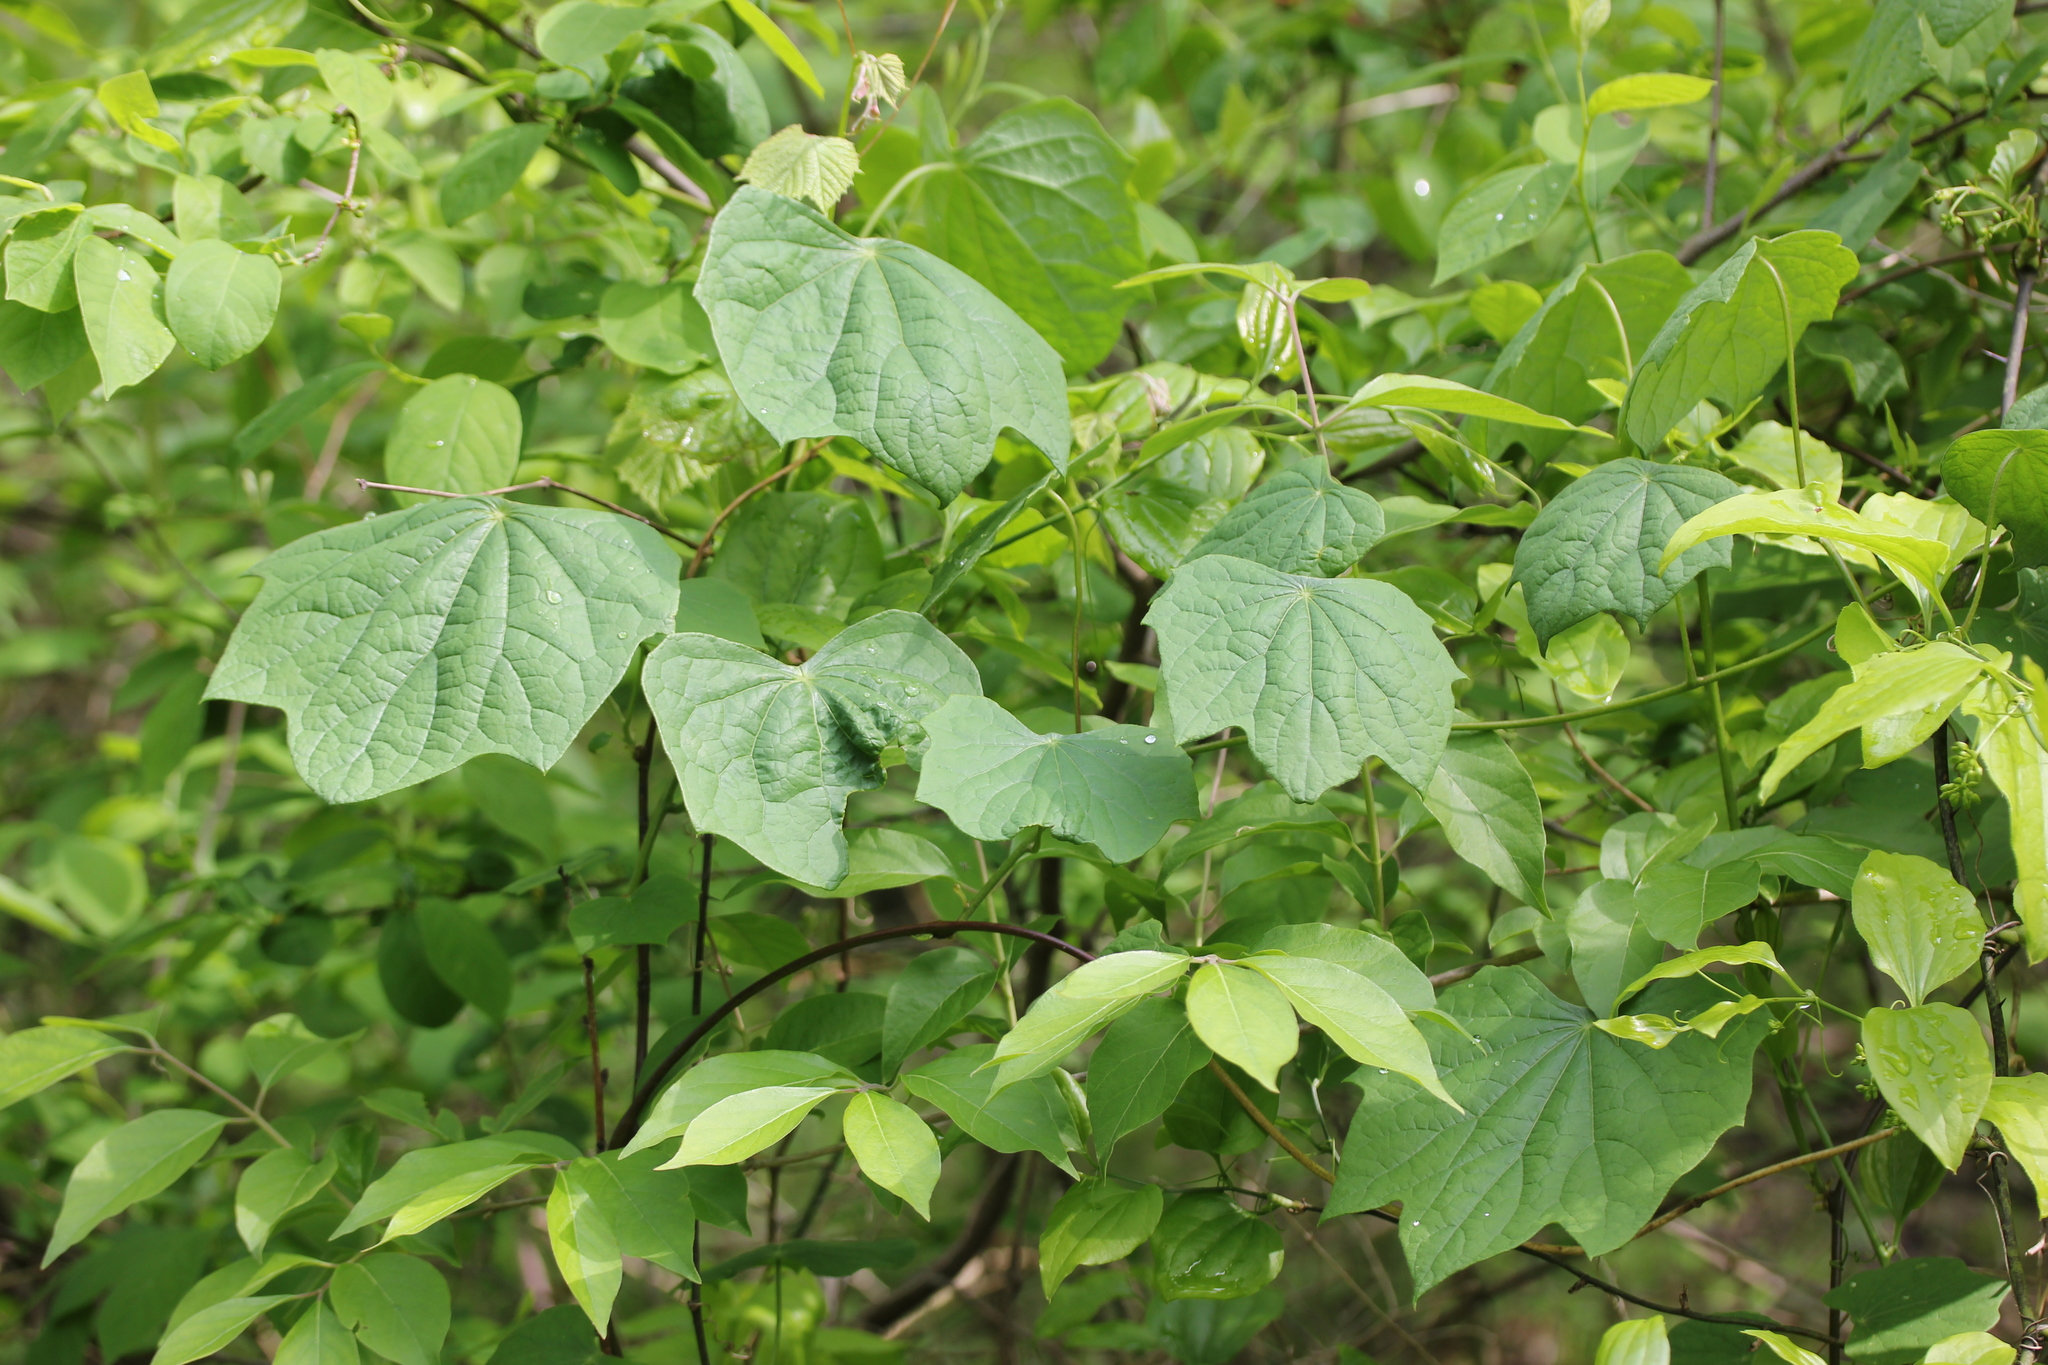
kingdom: Plantae
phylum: Tracheophyta
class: Magnoliopsida
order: Ranunculales
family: Menispermaceae
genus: Menispermum
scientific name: Menispermum canadense
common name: Moonseed
